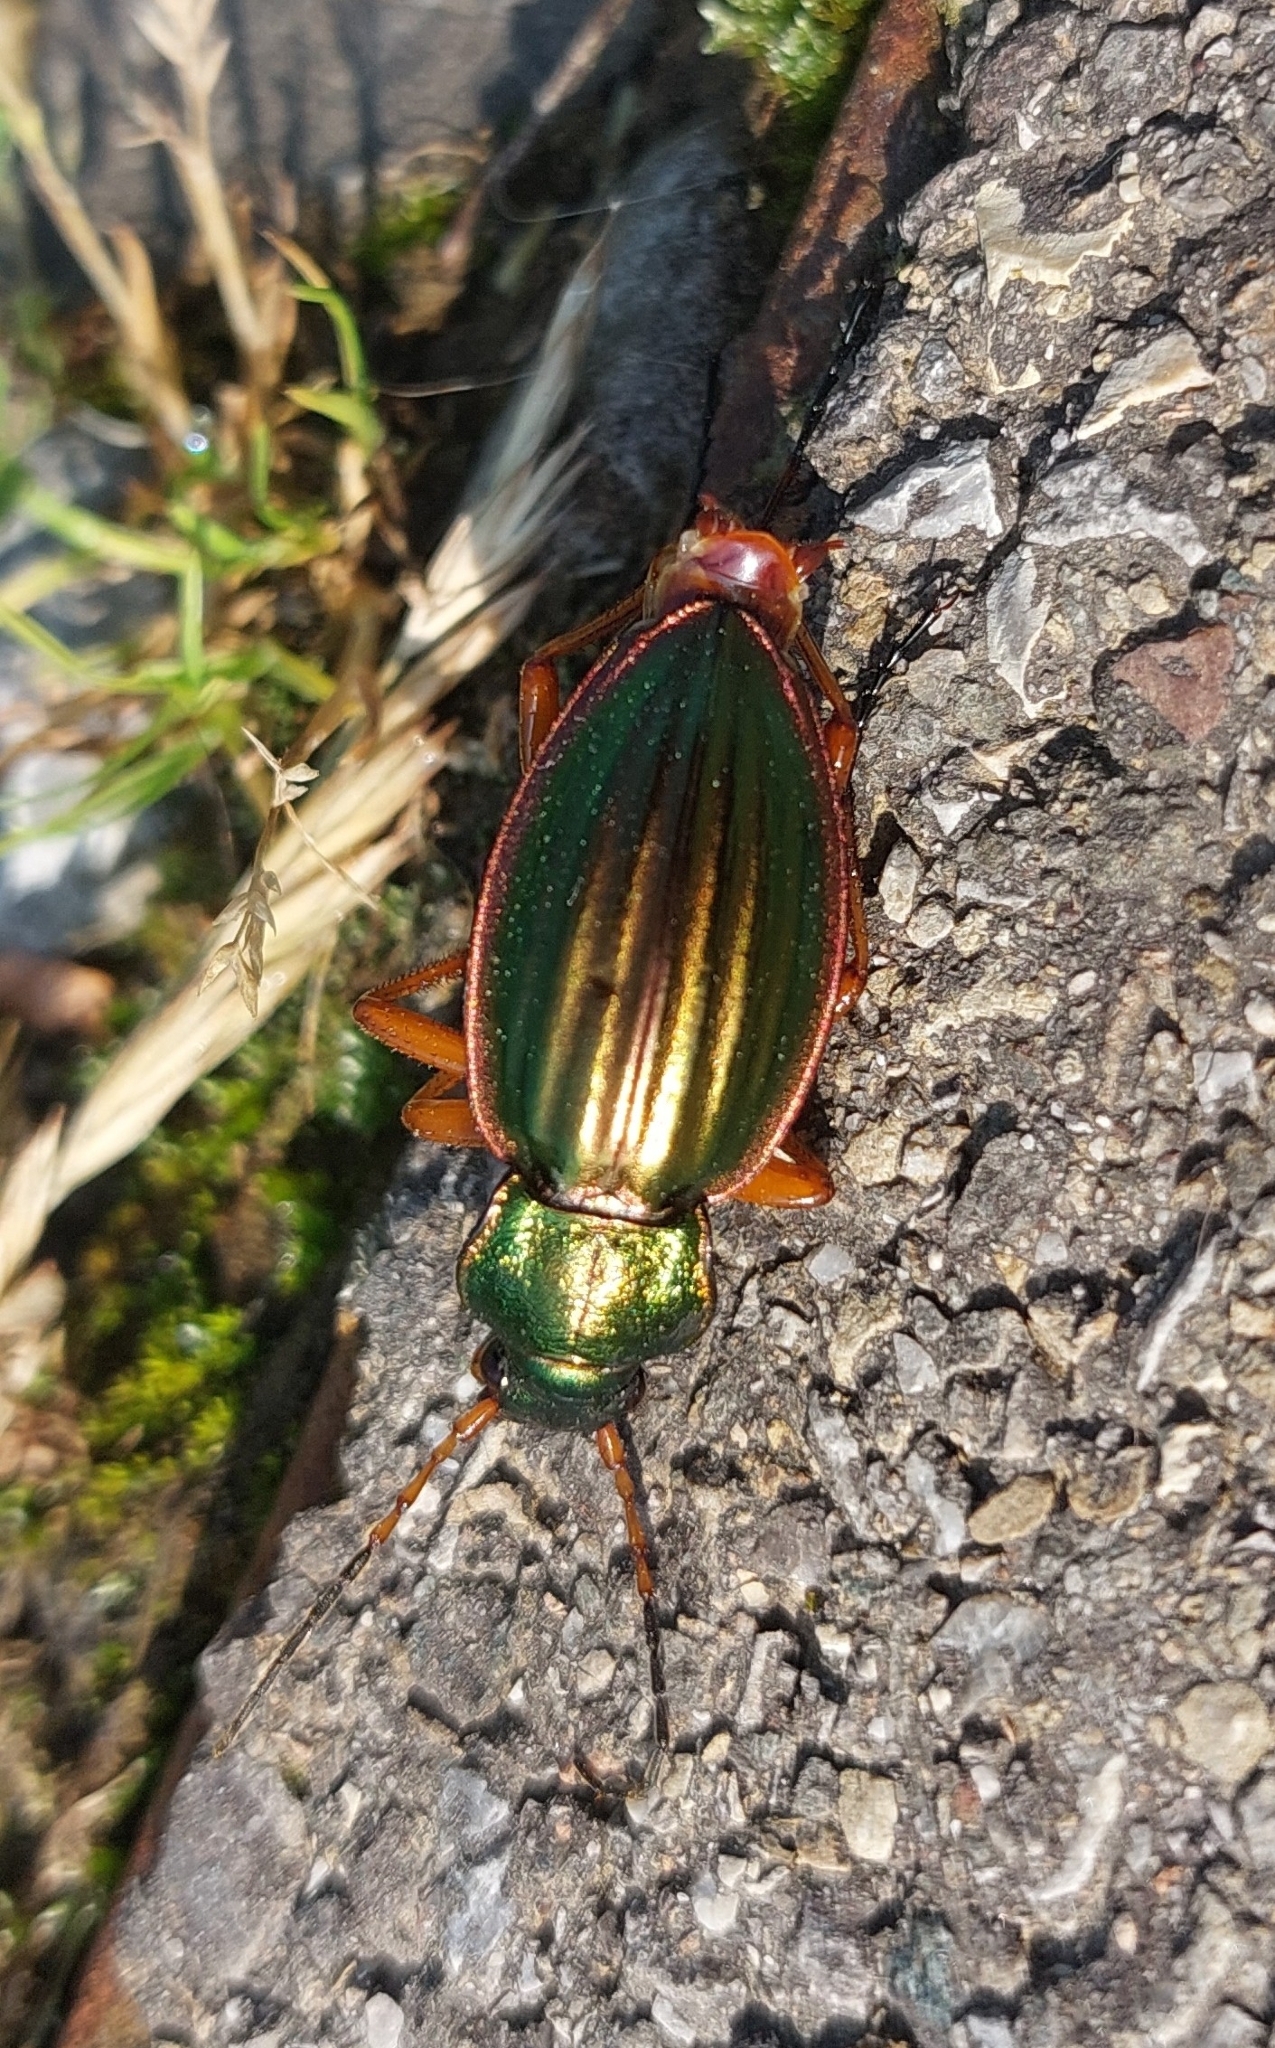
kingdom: Animalia
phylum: Arthropoda
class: Insecta
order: Coleoptera
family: Carabidae
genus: Carabus
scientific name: Carabus auratus
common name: Golden ground beetle
